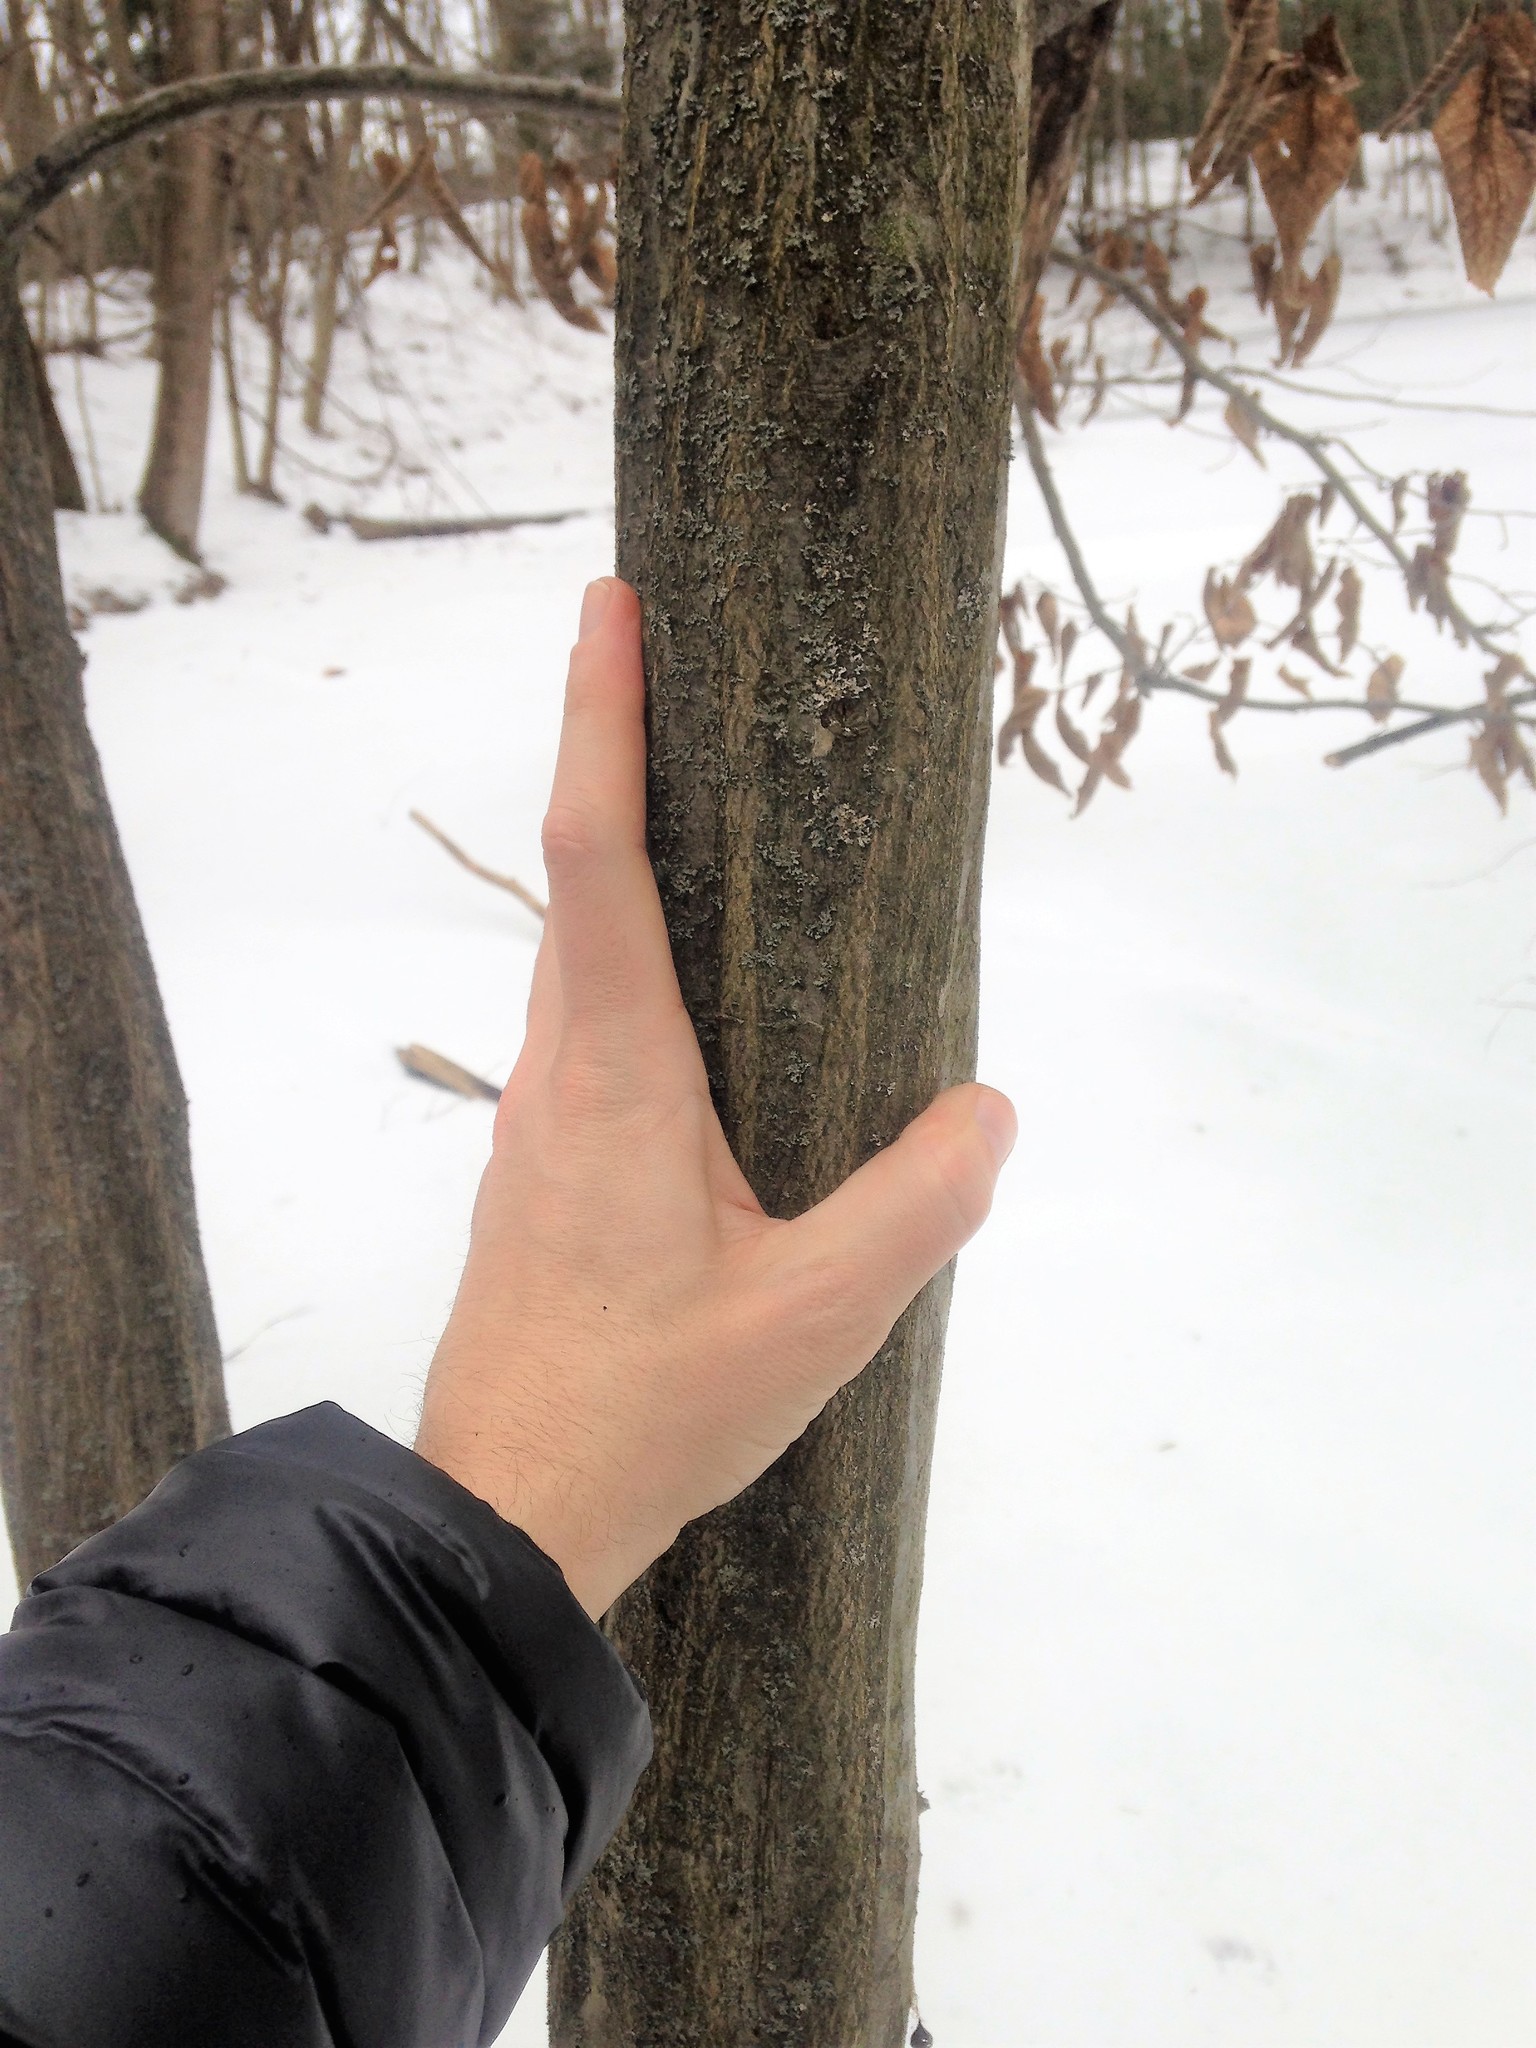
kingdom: Plantae
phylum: Tracheophyta
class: Magnoliopsida
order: Fagales
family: Betulaceae
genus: Carpinus
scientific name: Carpinus caroliniana
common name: American hornbeam
